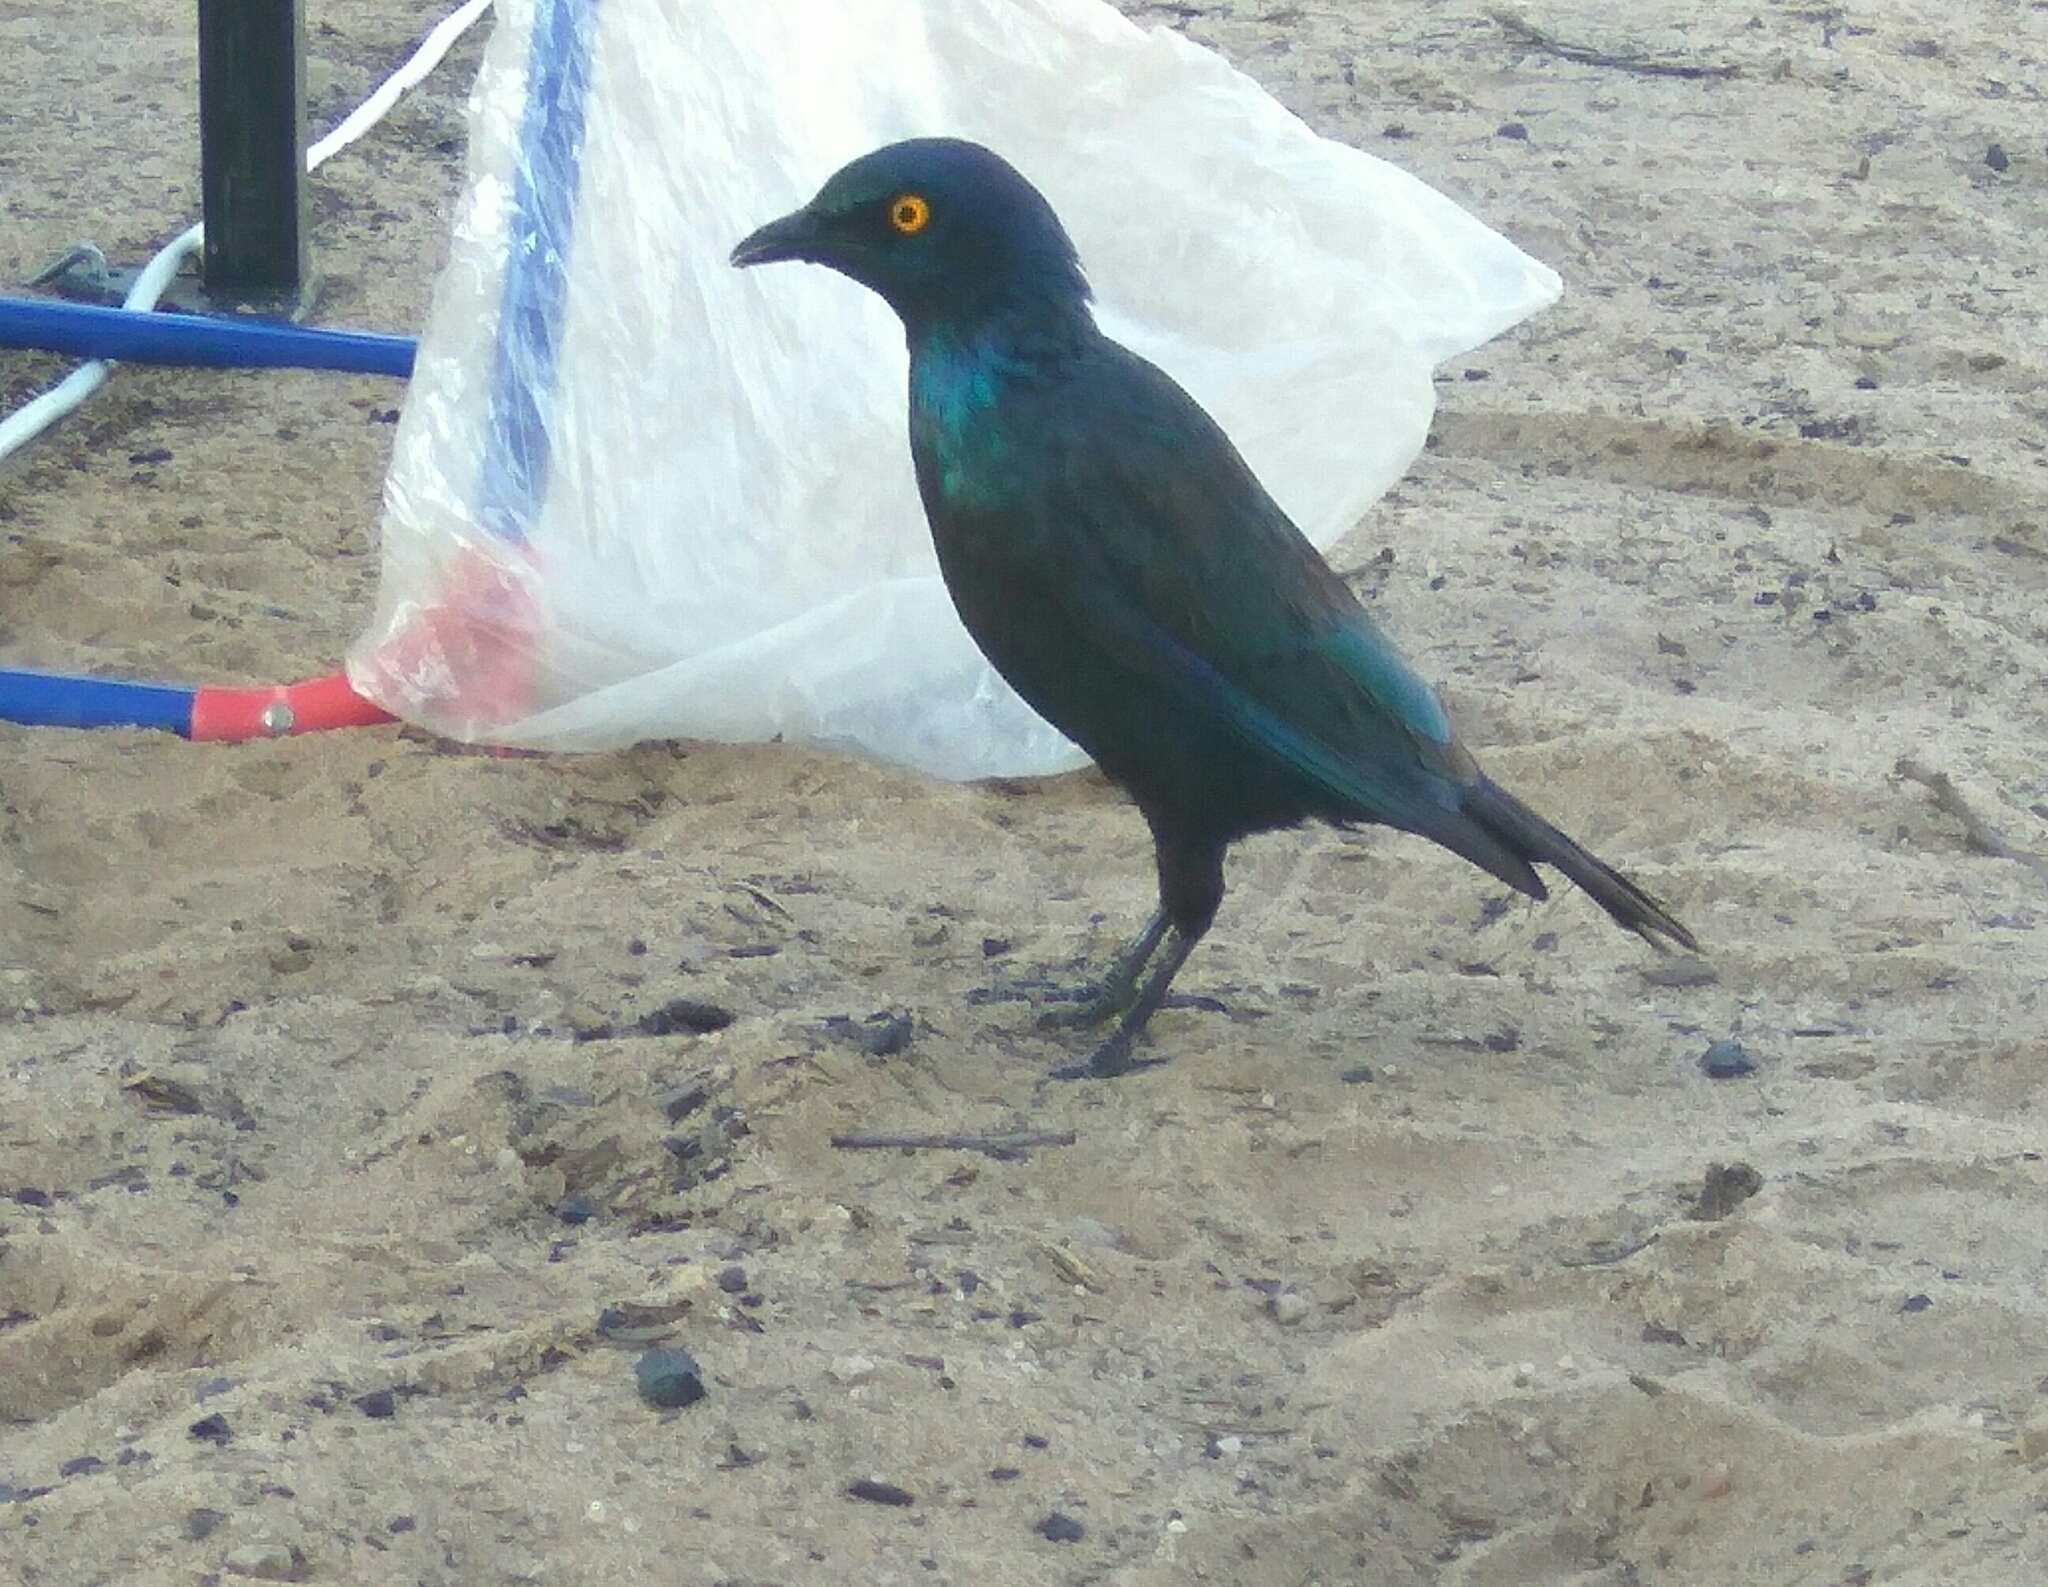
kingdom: Animalia
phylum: Chordata
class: Aves
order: Passeriformes
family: Sturnidae
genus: Lamprotornis
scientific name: Lamprotornis nitens
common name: Cape starling
